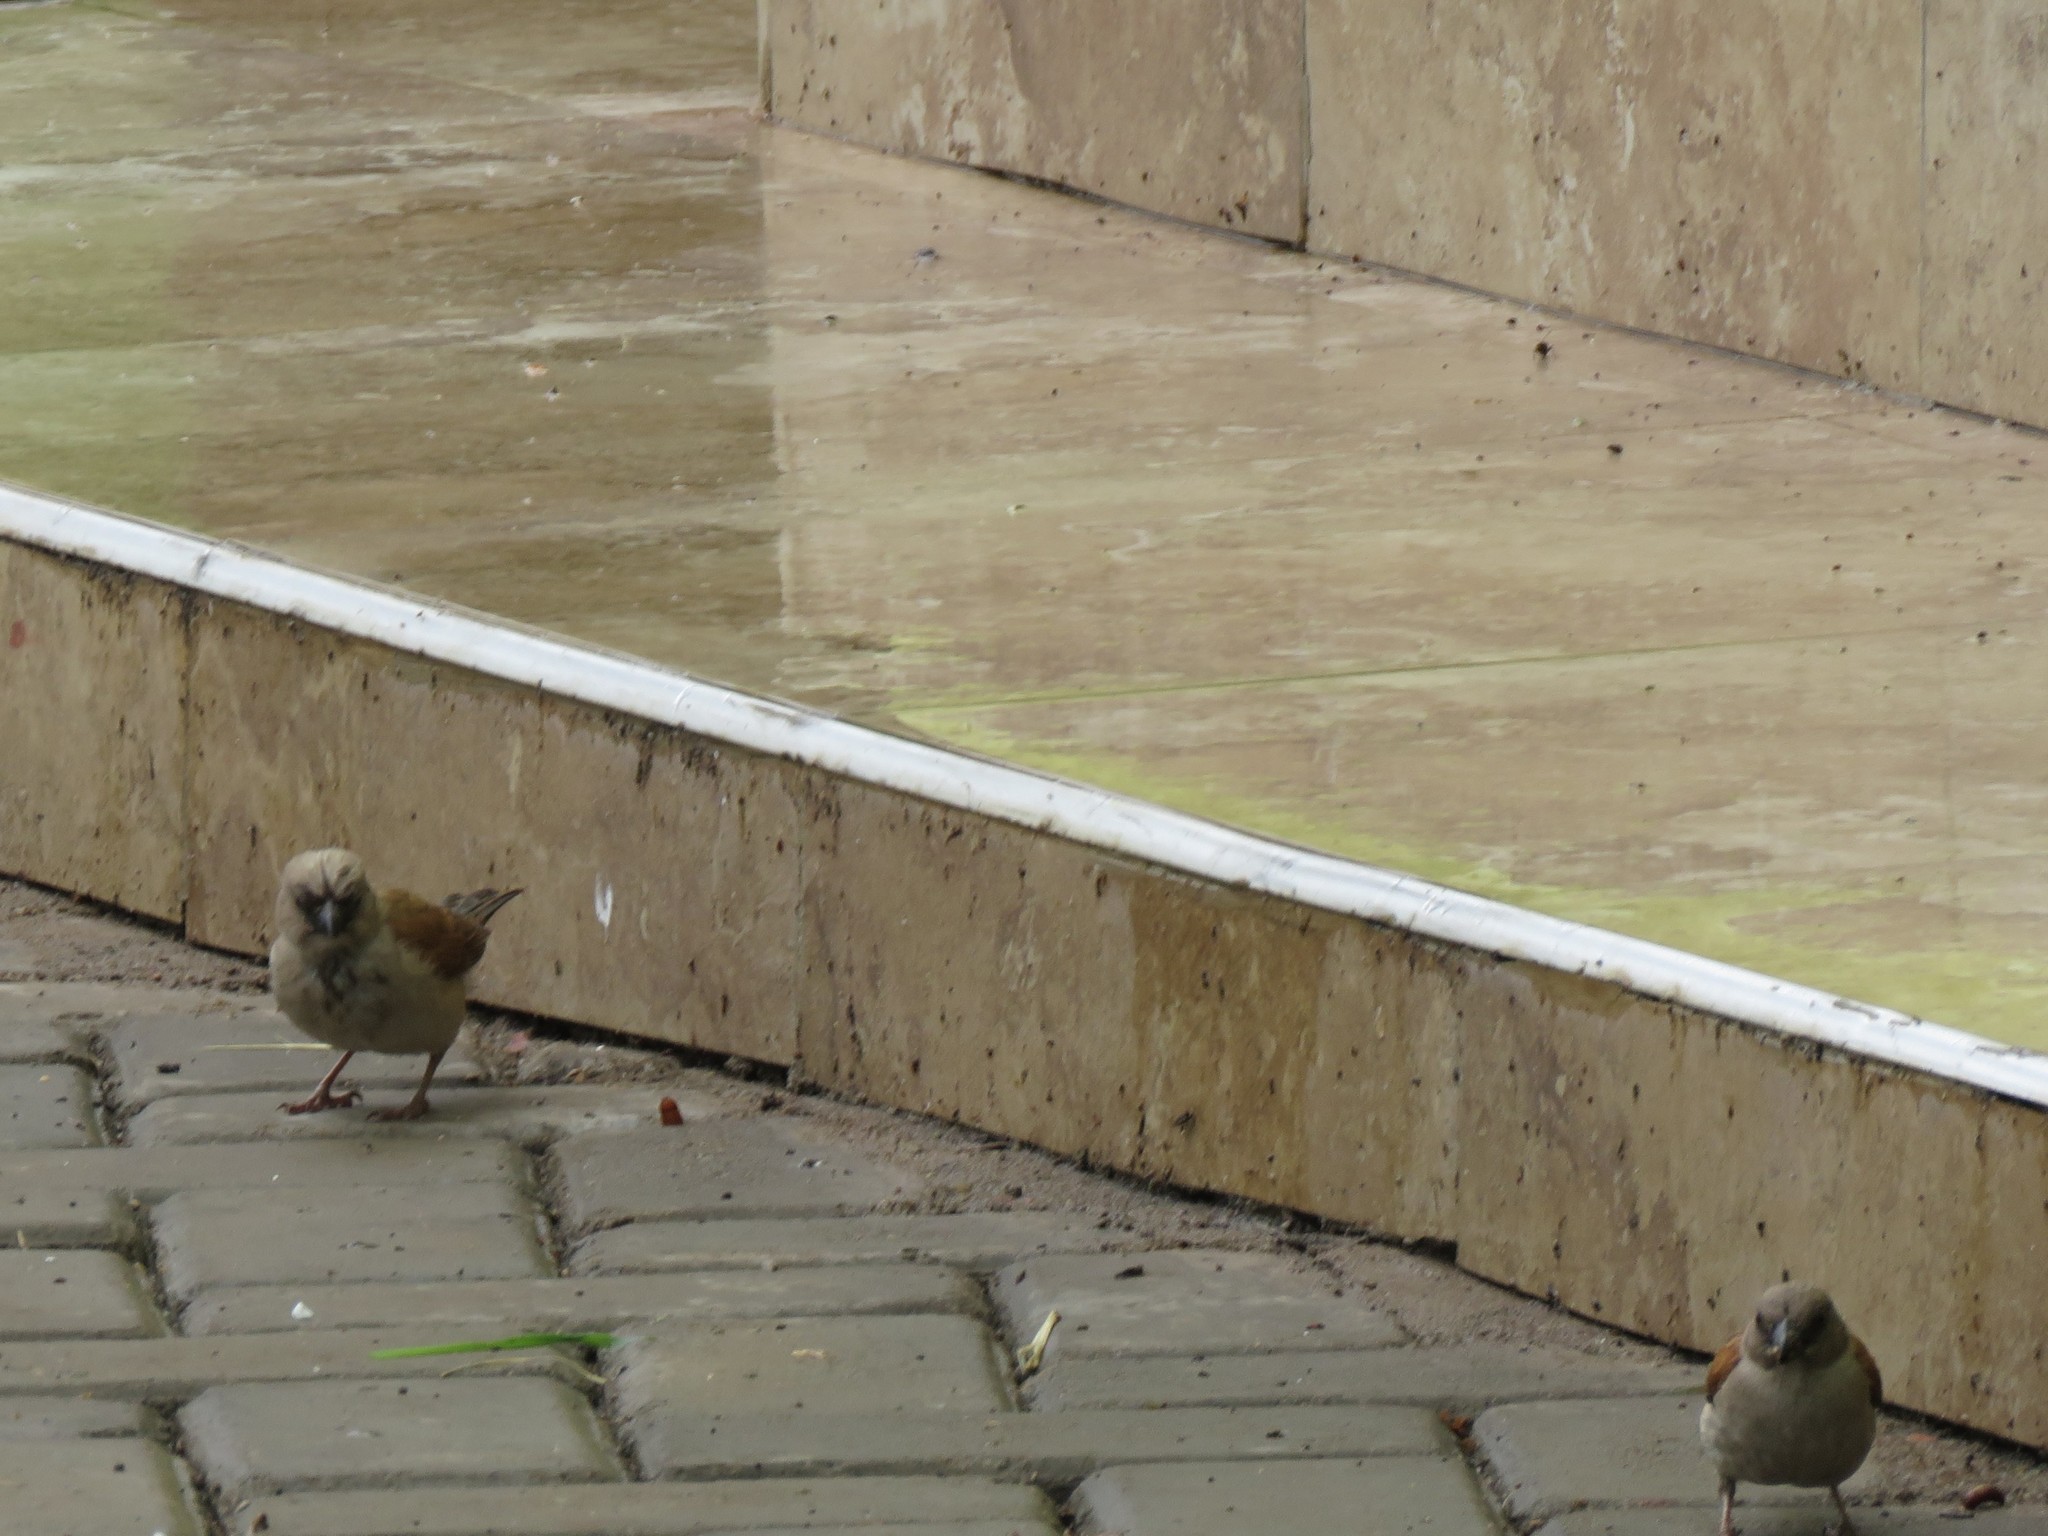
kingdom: Animalia
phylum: Chordata
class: Aves
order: Passeriformes
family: Passeridae
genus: Passer
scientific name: Passer griseus
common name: Northern grey-headed sparrow
